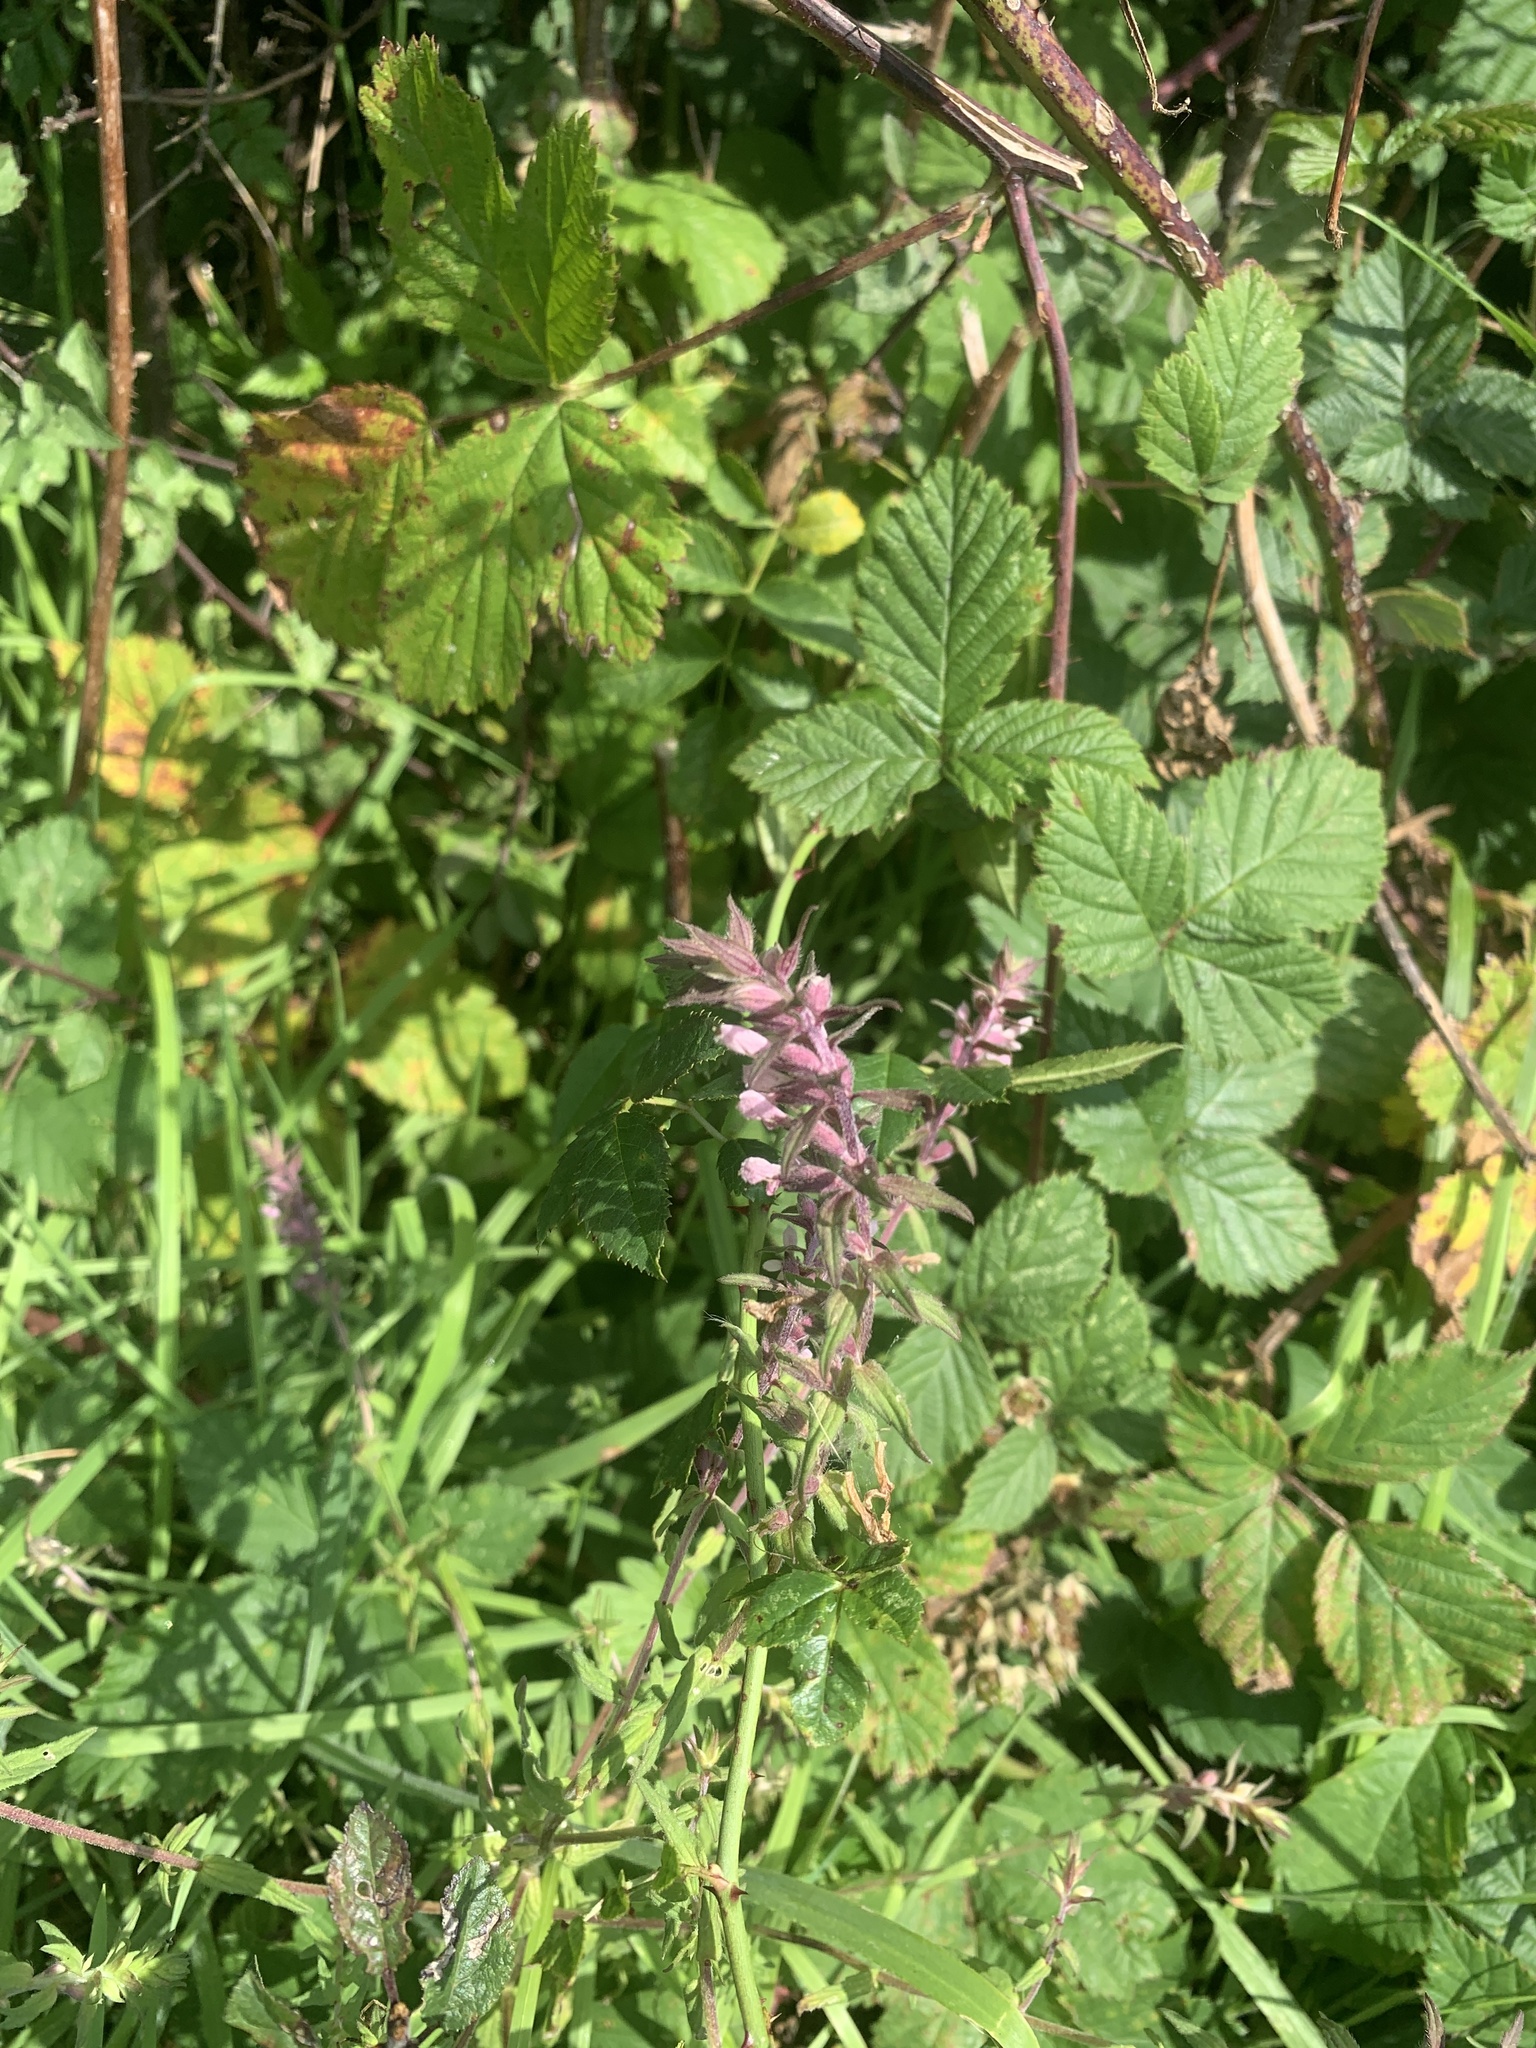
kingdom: Plantae
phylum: Tracheophyta
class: Magnoliopsida
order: Lamiales
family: Orobanchaceae
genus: Odontites
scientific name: Odontites vernus
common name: Red bartsia
